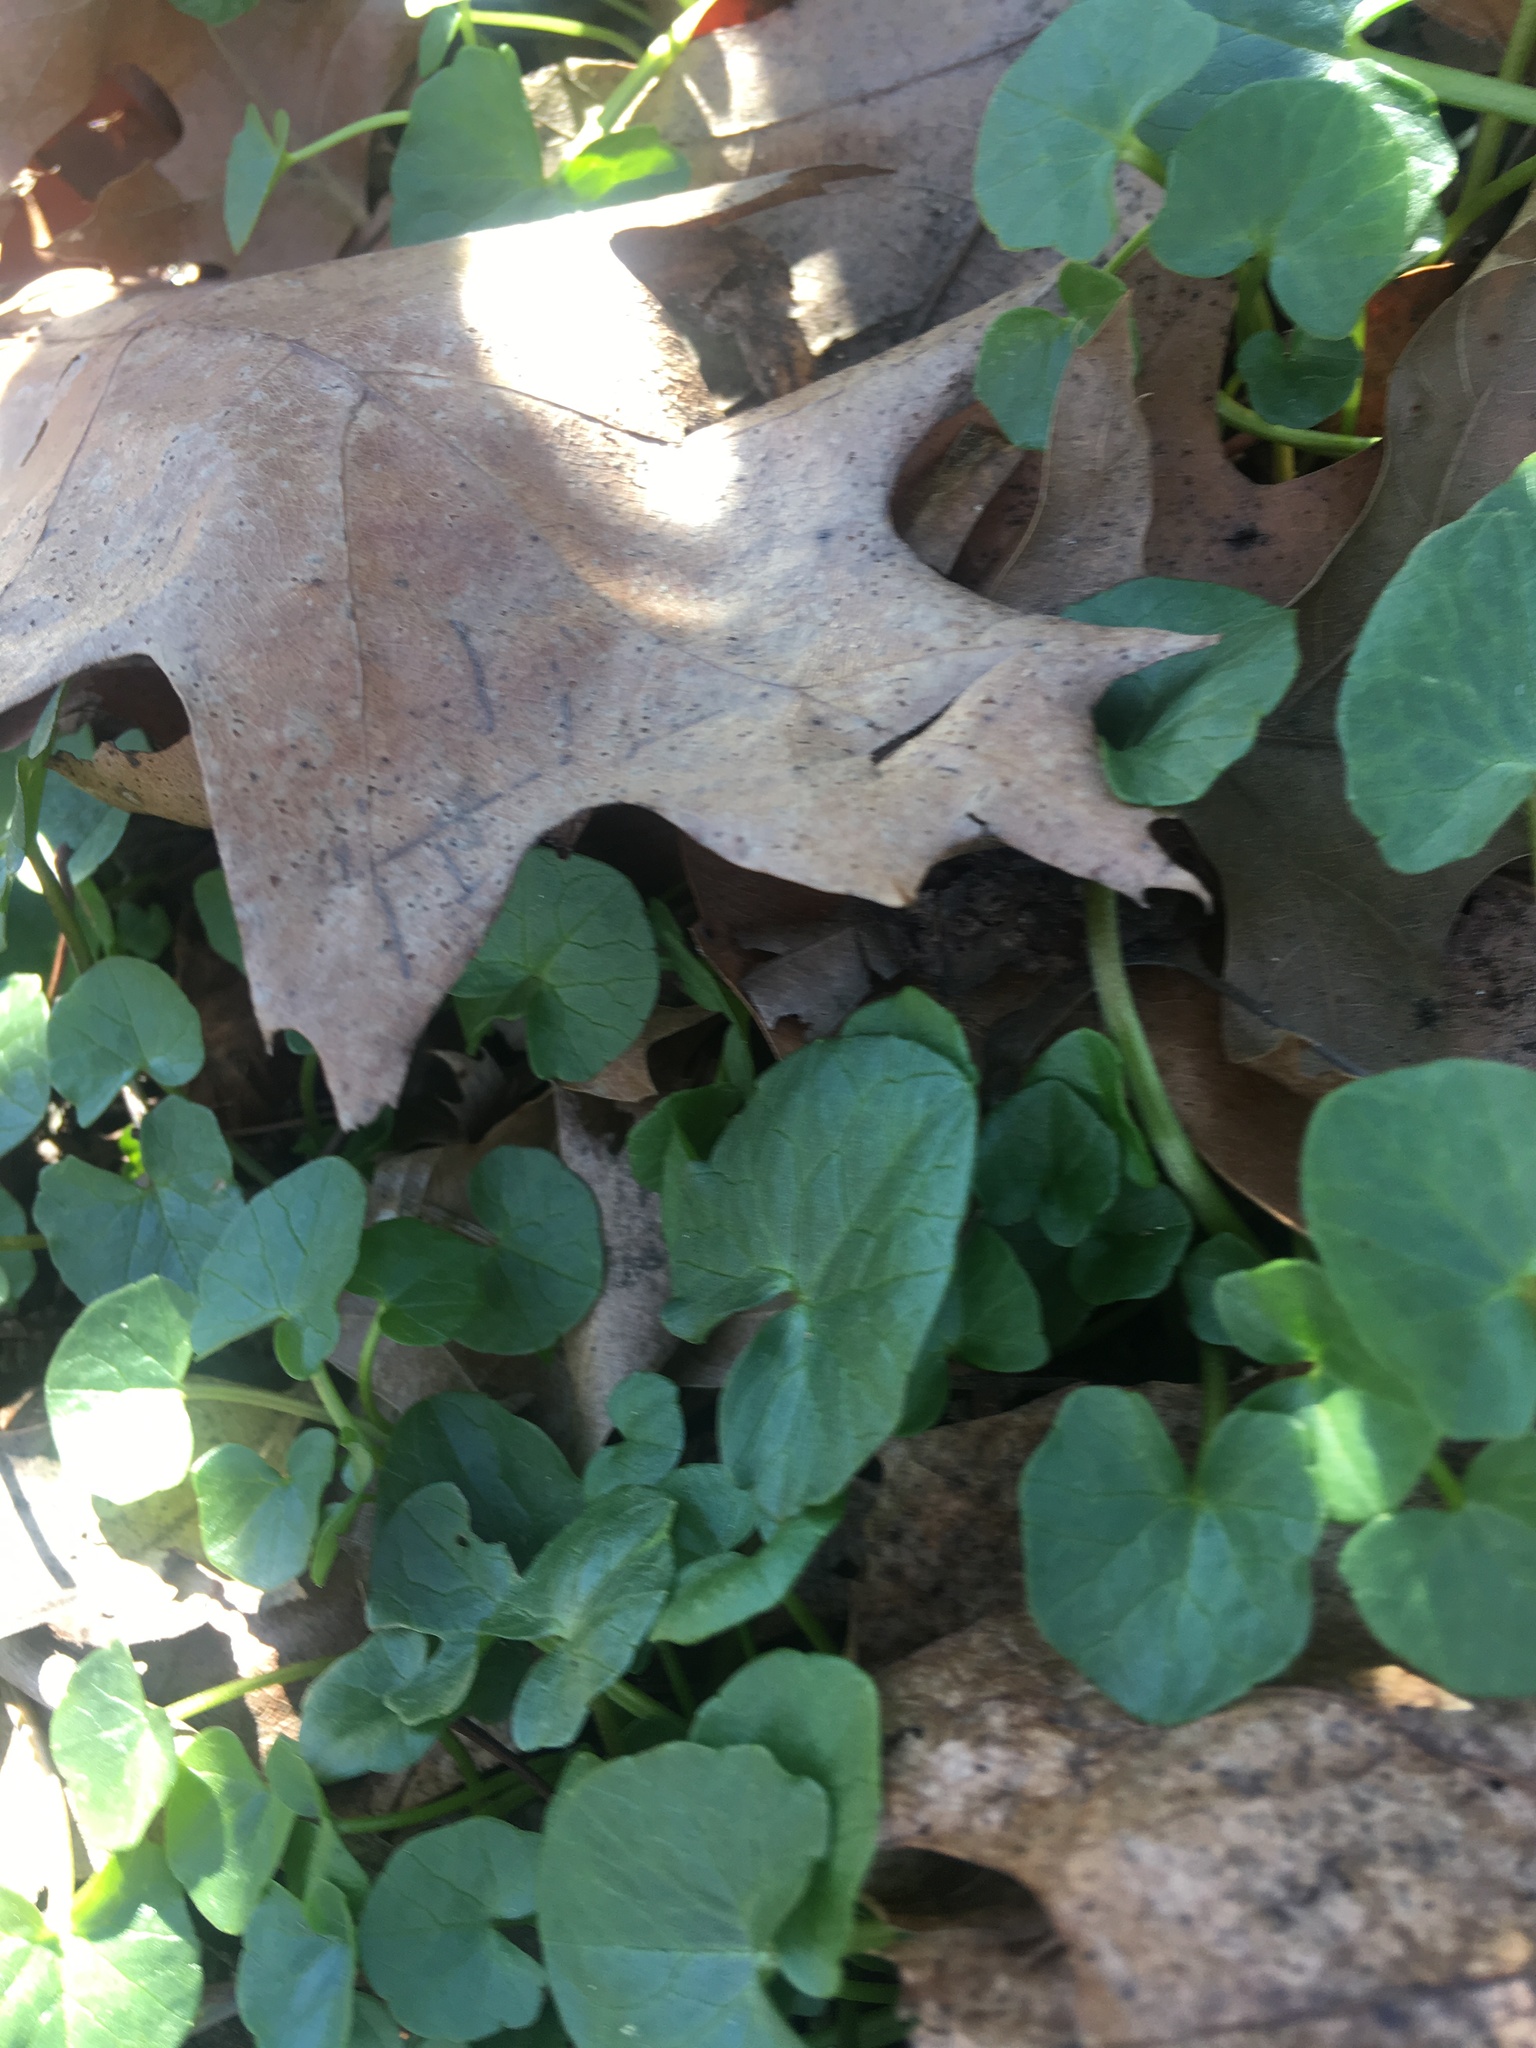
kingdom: Plantae
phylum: Tracheophyta
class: Magnoliopsida
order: Ranunculales
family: Ranunculaceae
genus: Ficaria
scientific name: Ficaria verna
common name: Lesser celandine
